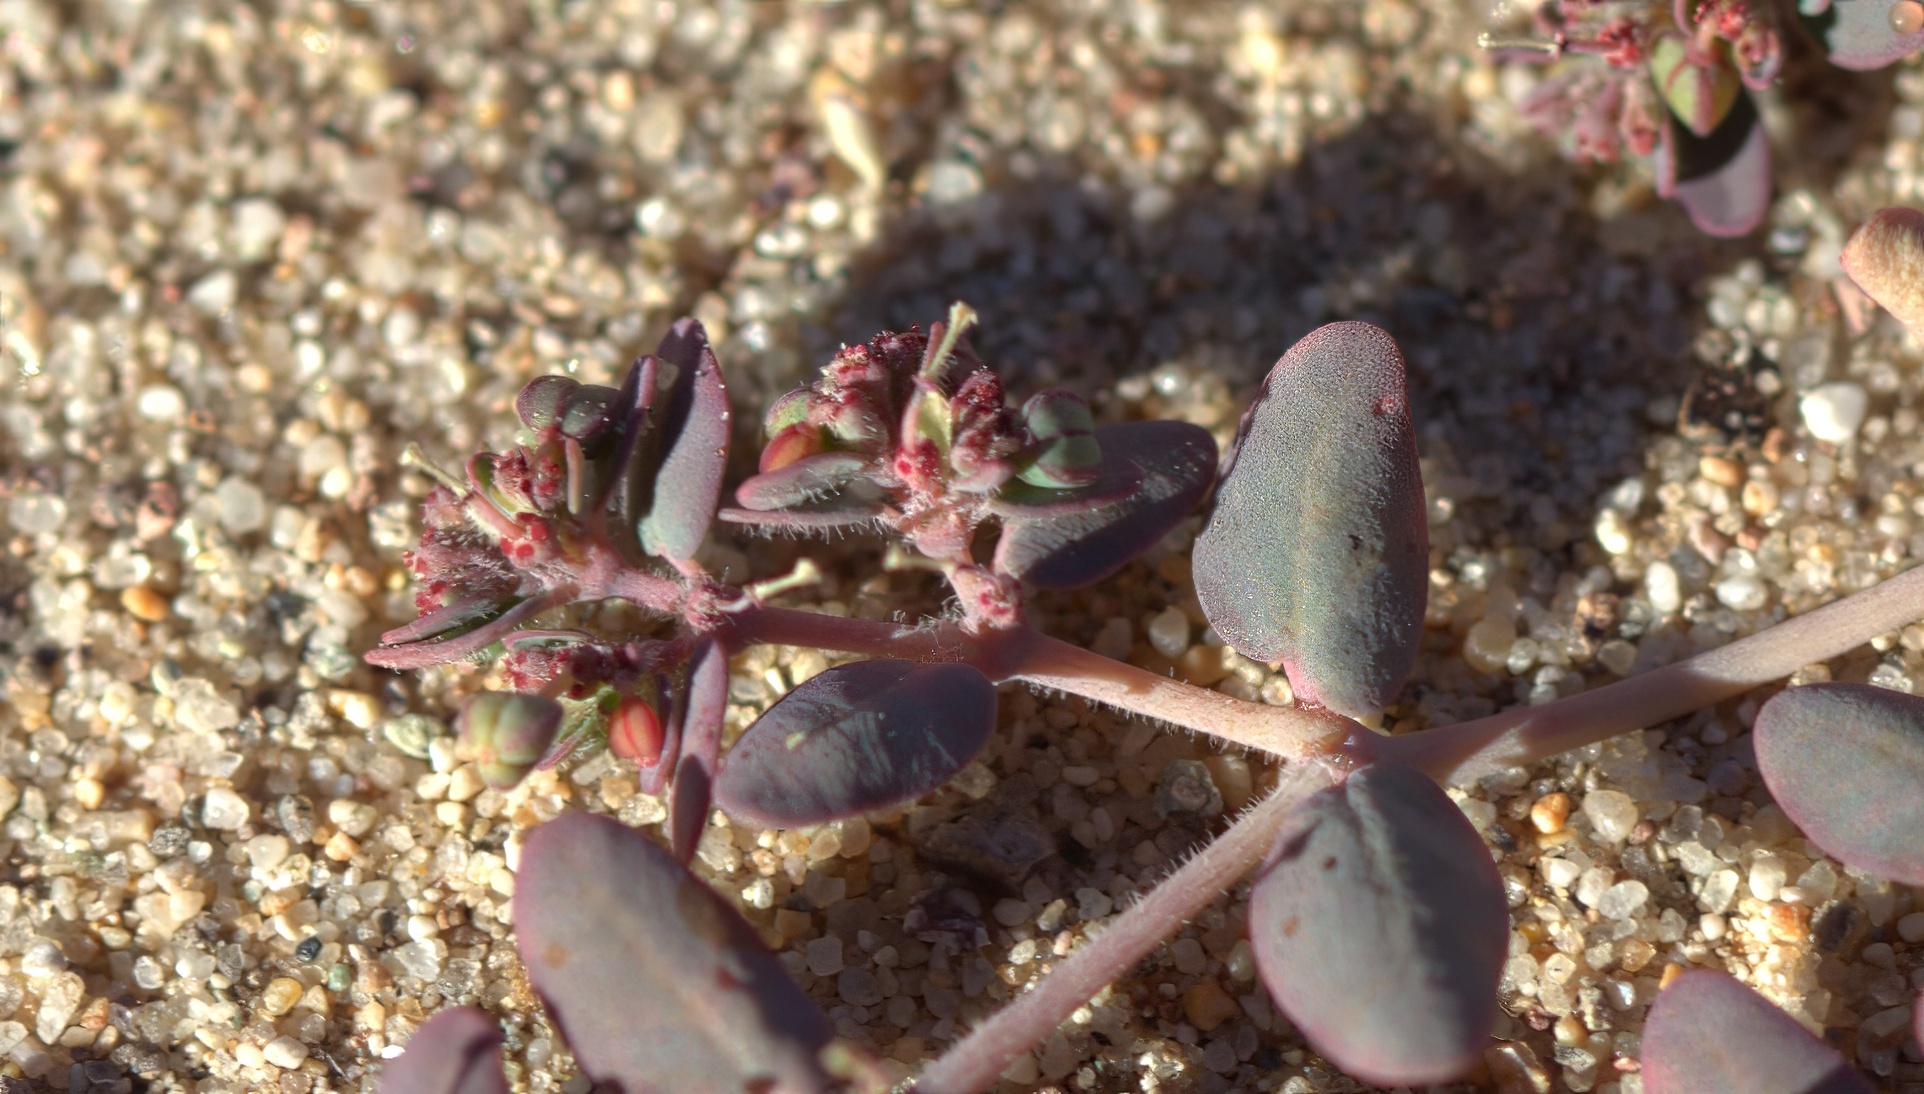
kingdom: Plantae
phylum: Tracheophyta
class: Magnoliopsida
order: Malpighiales
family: Euphorbiaceae
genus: Euphorbia
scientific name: Euphorbia micromera
